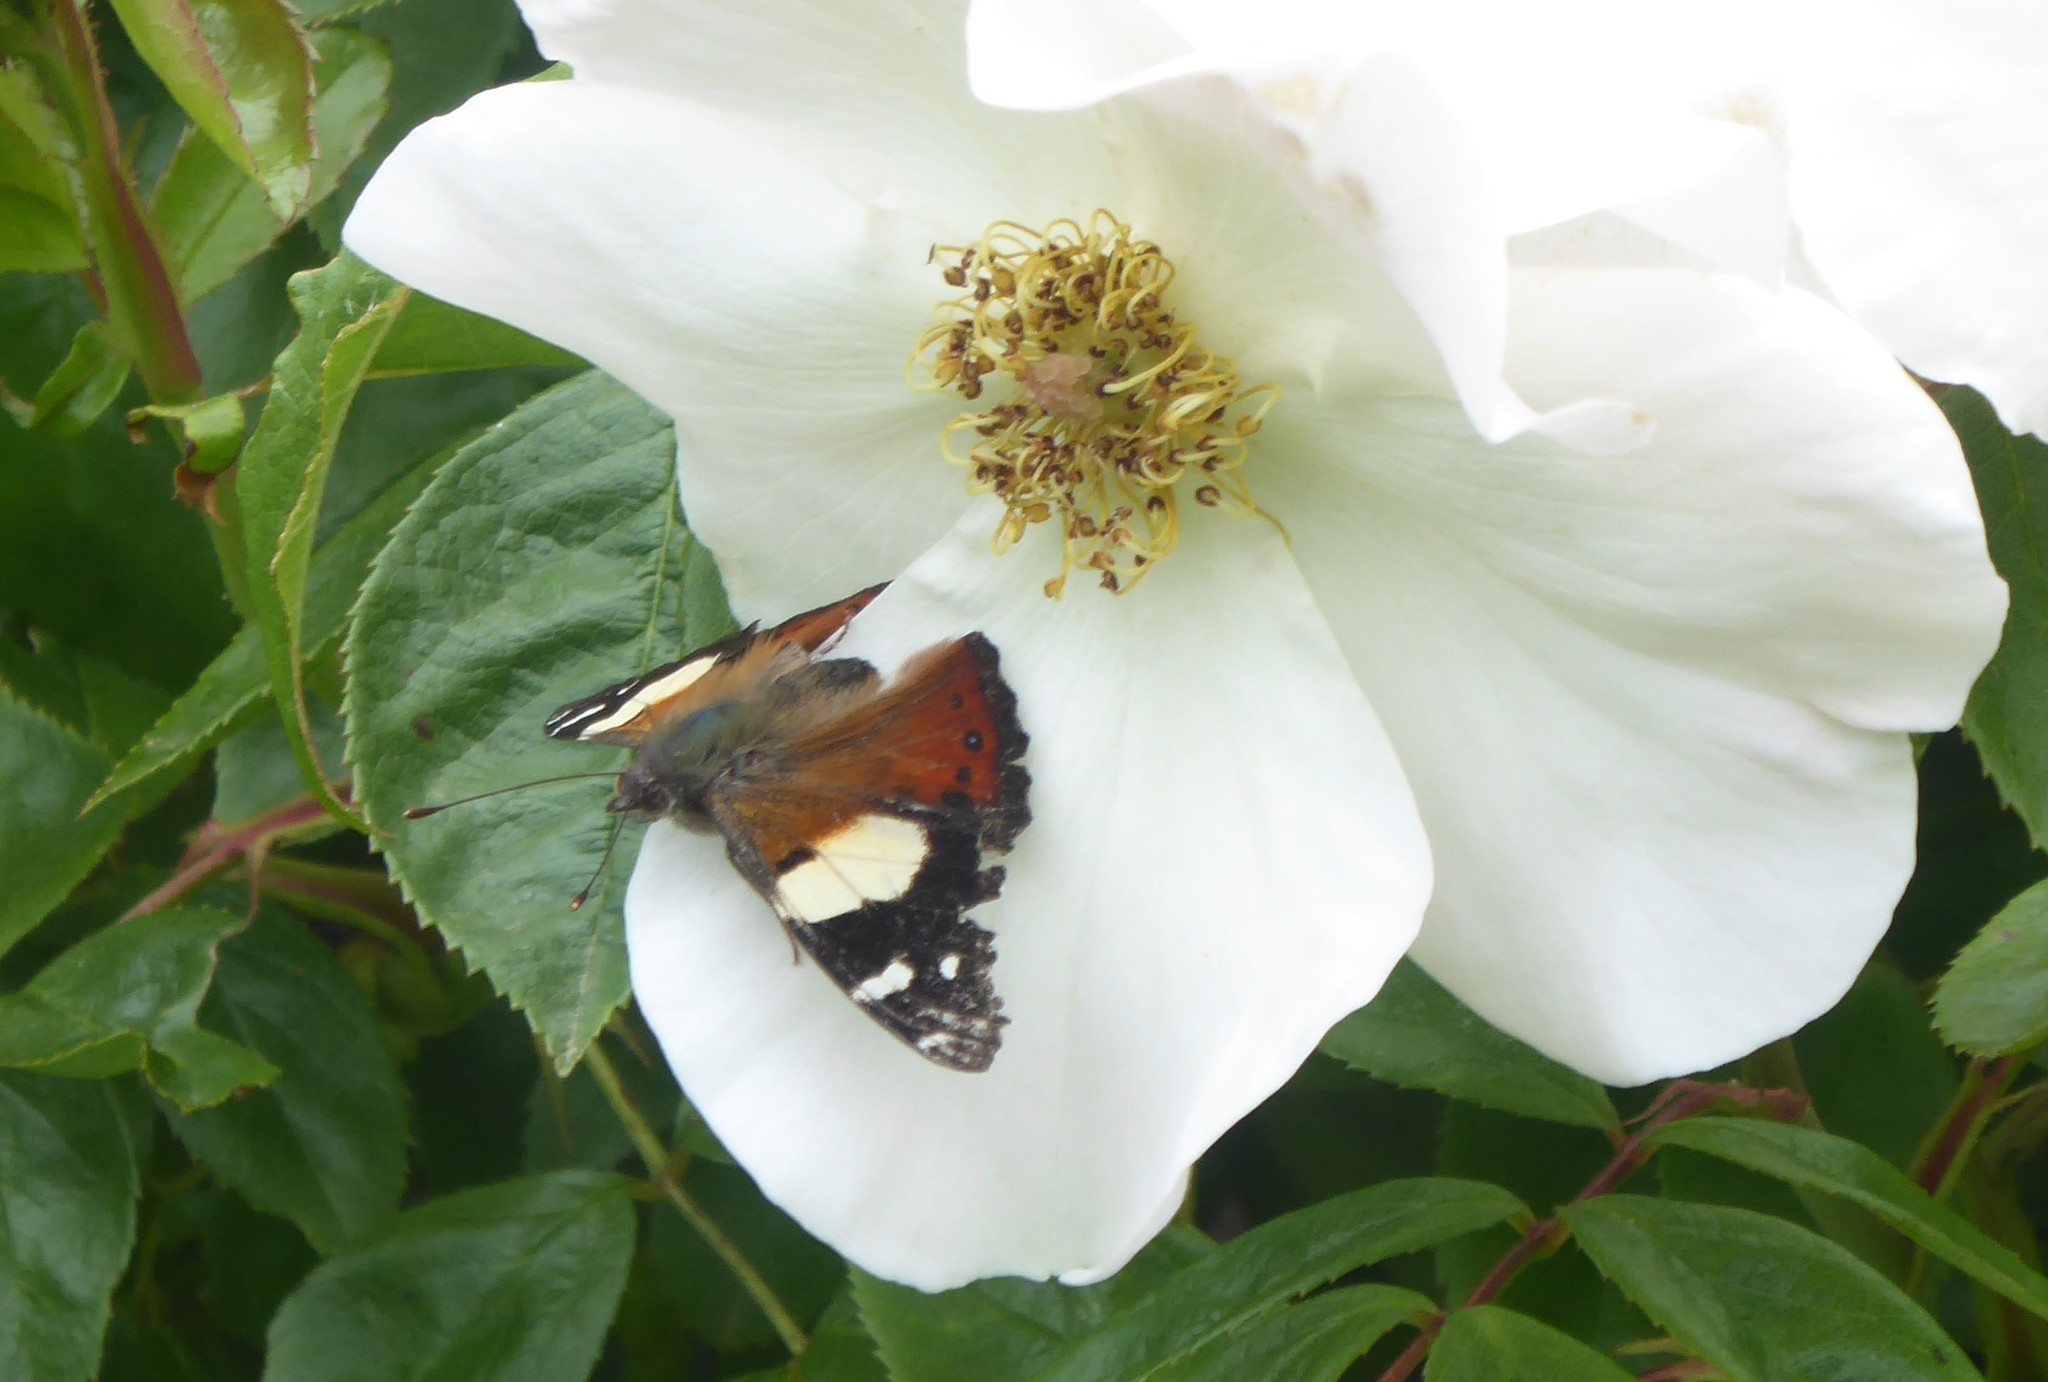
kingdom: Animalia
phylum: Arthropoda
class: Insecta
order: Lepidoptera
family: Nymphalidae
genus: Vanessa
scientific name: Vanessa itea
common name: Yellow admiral
